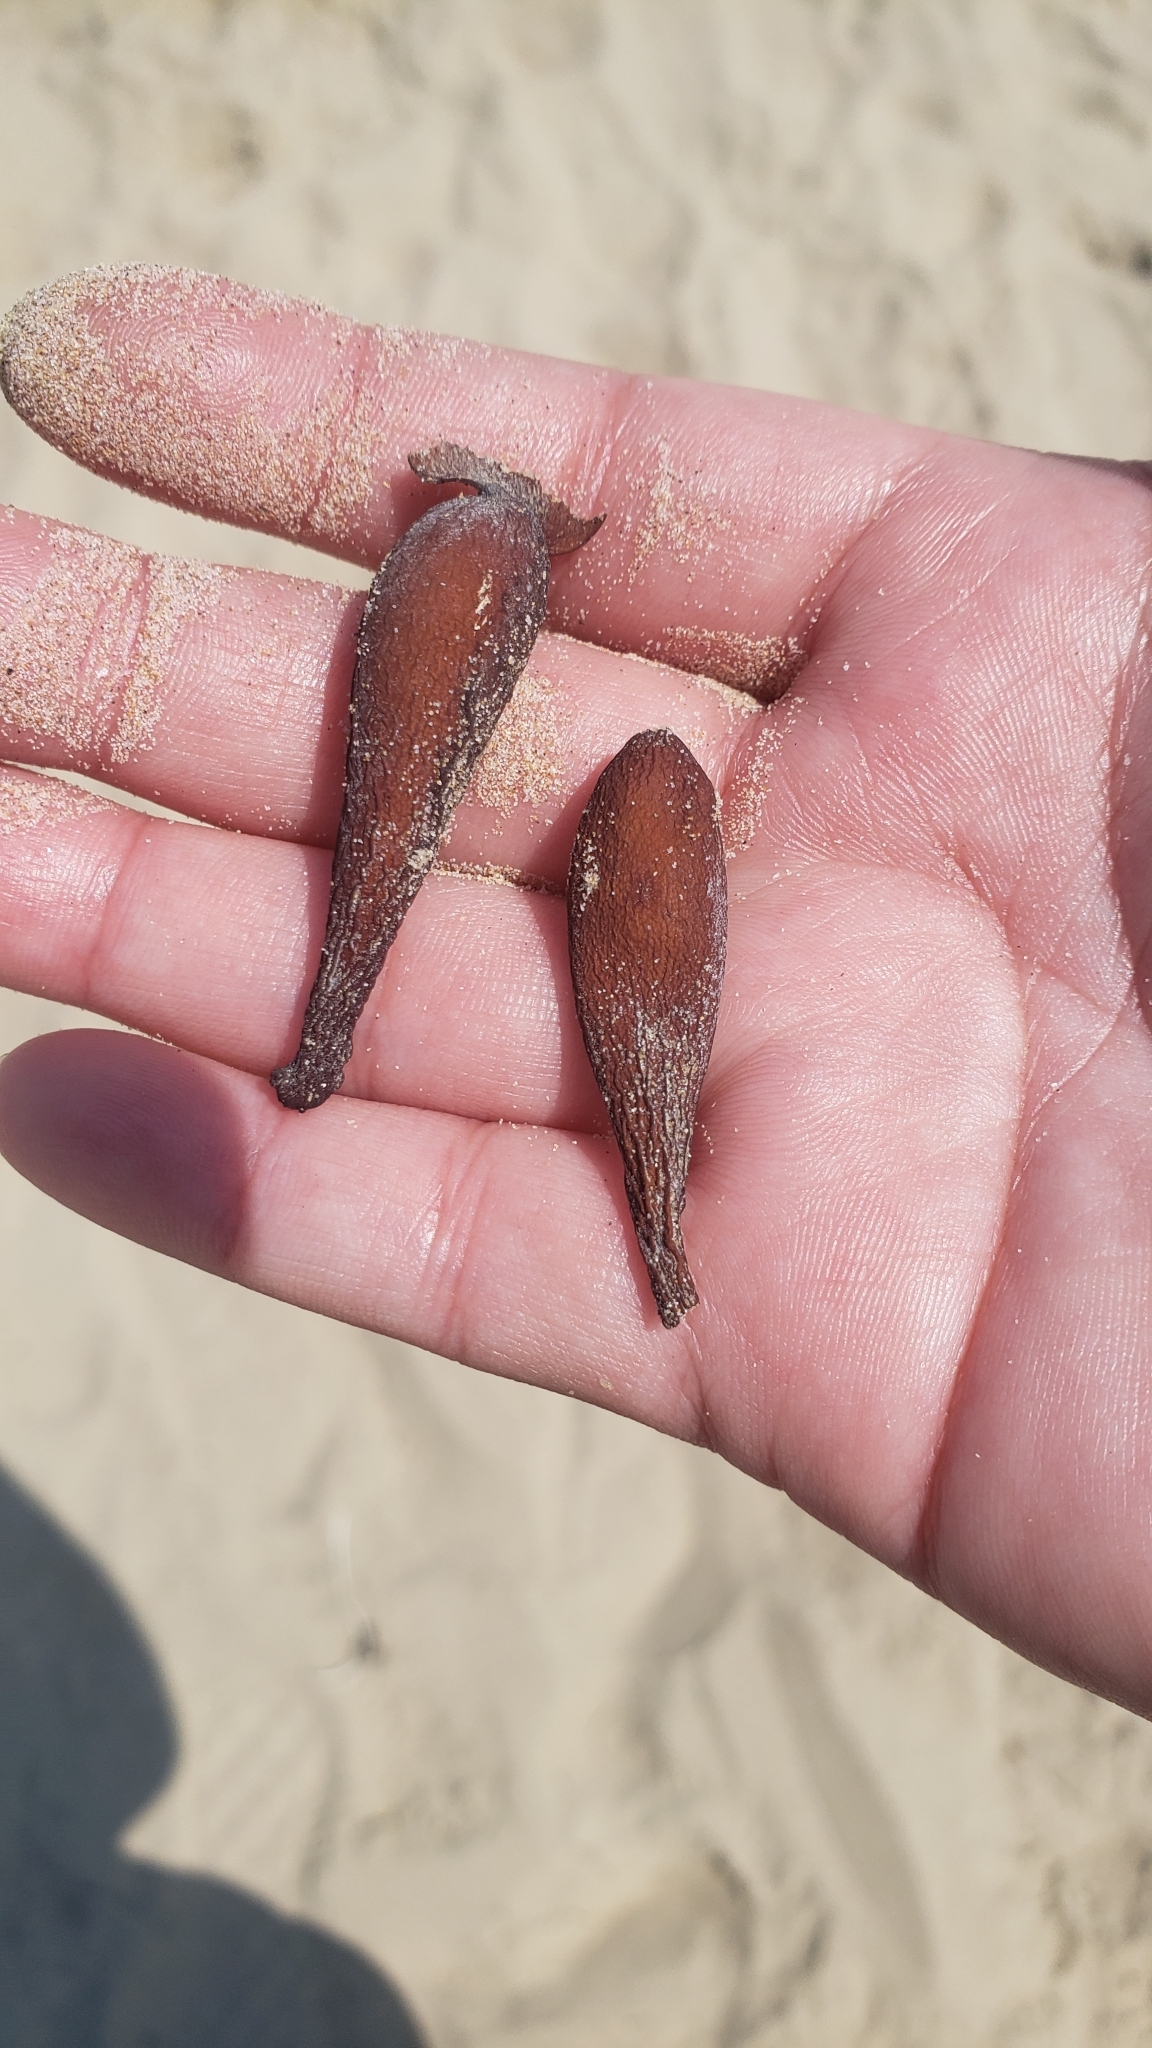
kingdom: Chromista
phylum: Ochrophyta
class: Phaeophyceae
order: Laminariales
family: Laminariaceae
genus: Macrocystis
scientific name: Macrocystis pyrifera
